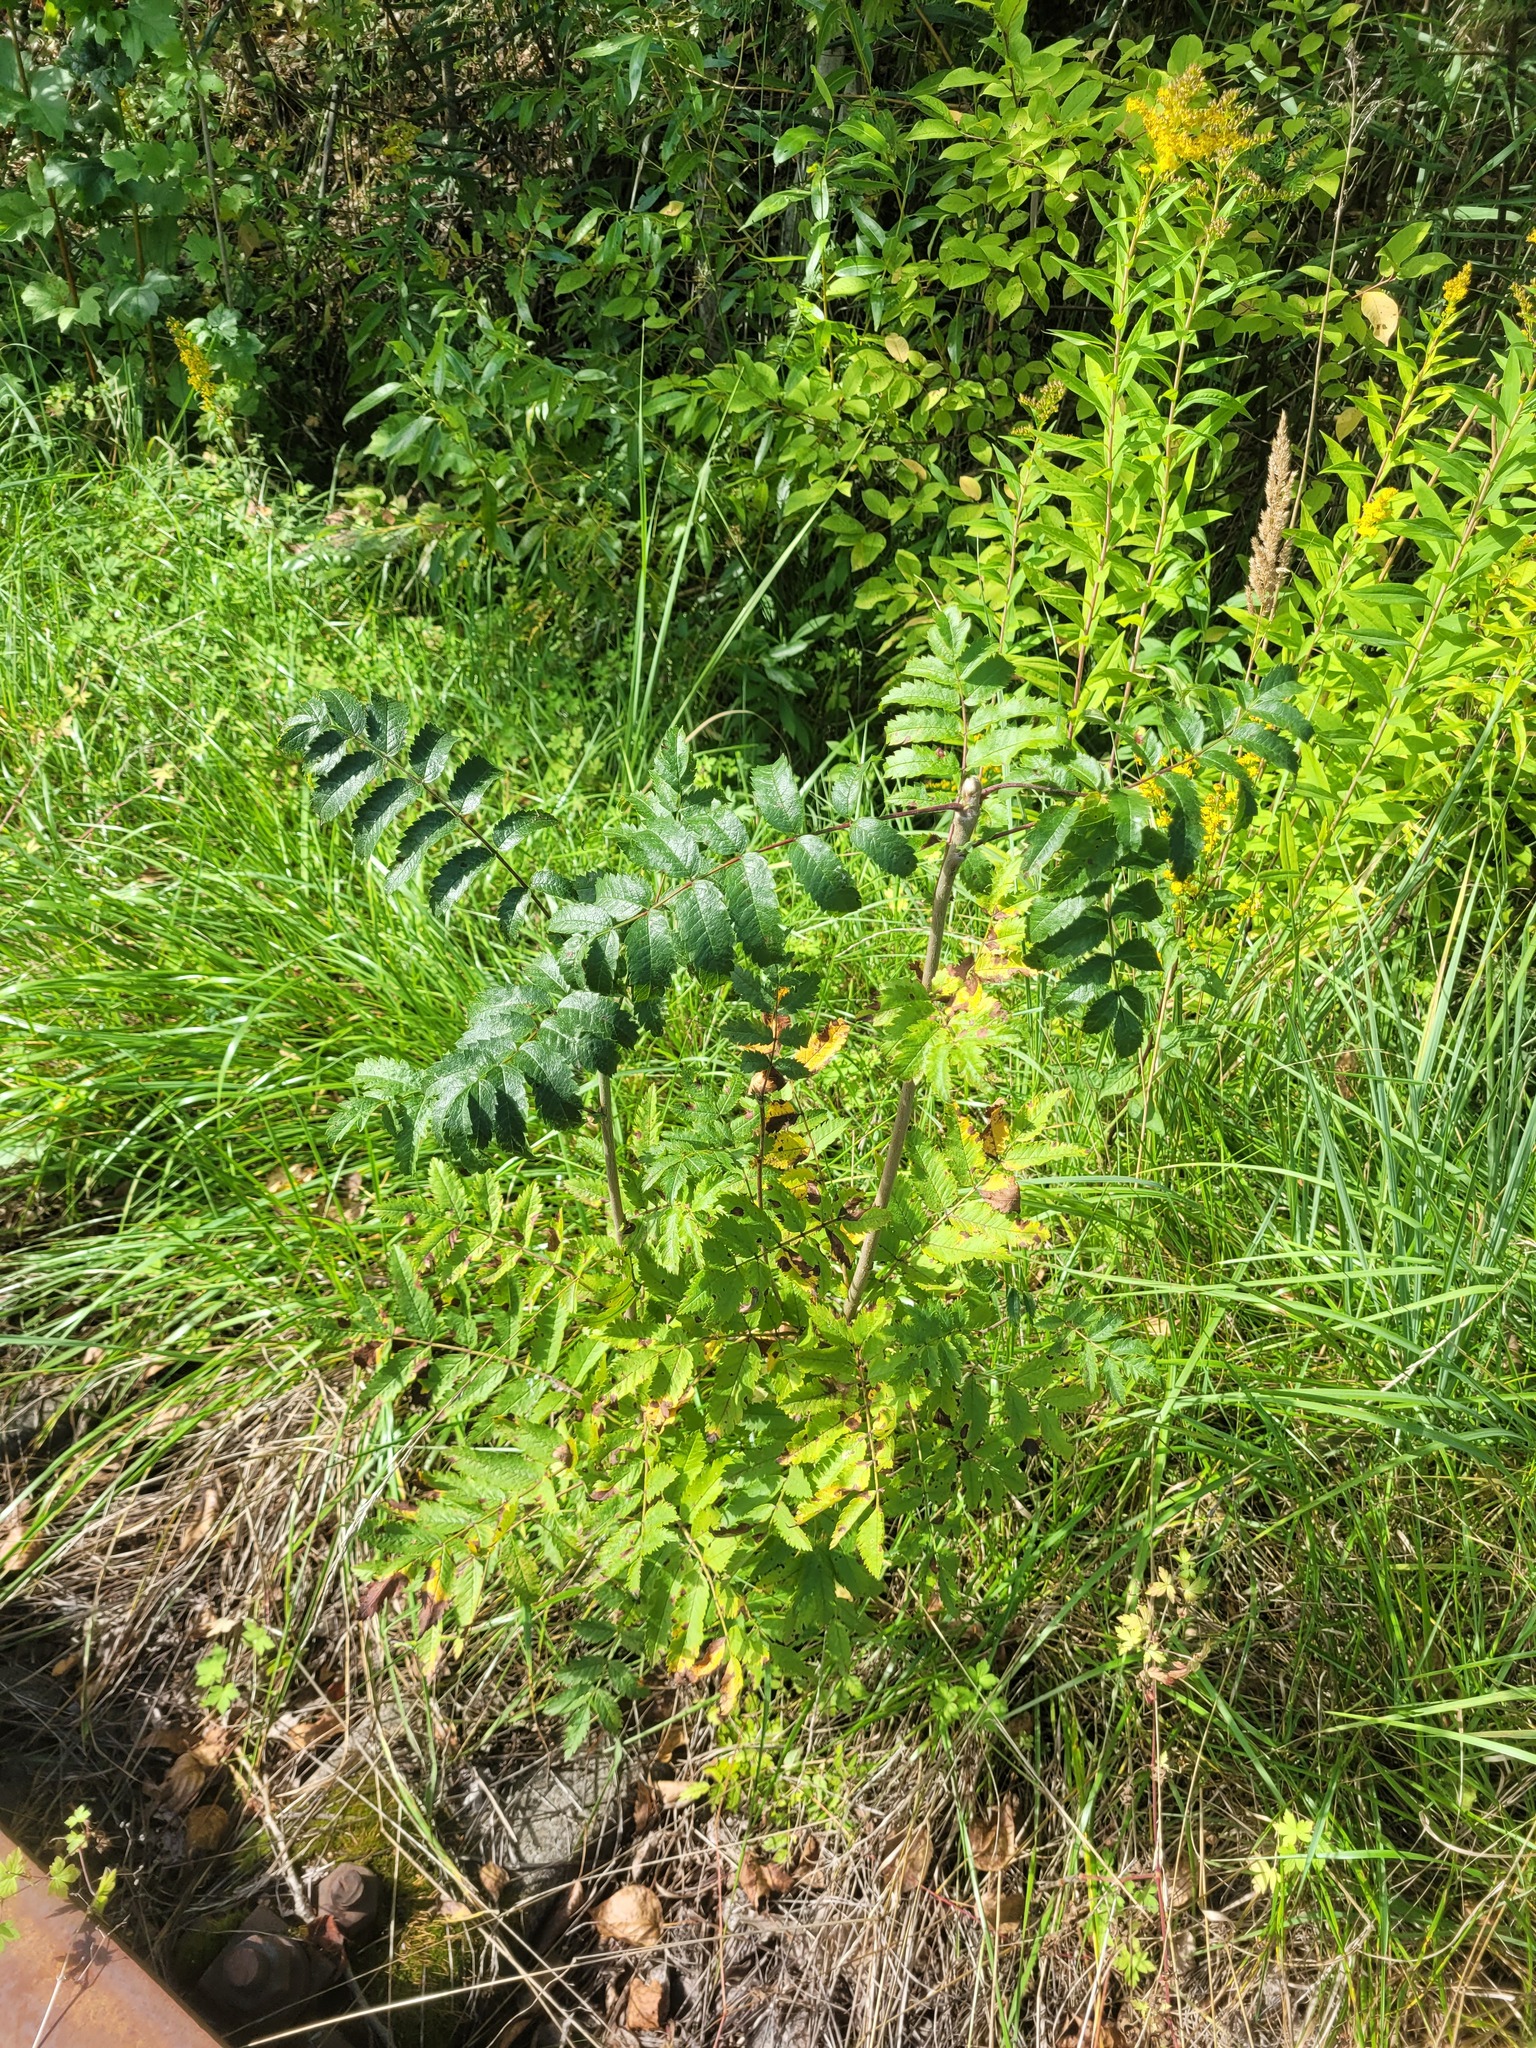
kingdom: Plantae
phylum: Tracheophyta
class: Magnoliopsida
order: Rosales
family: Rosaceae
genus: Sorbus
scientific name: Sorbus aucuparia
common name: Rowan
